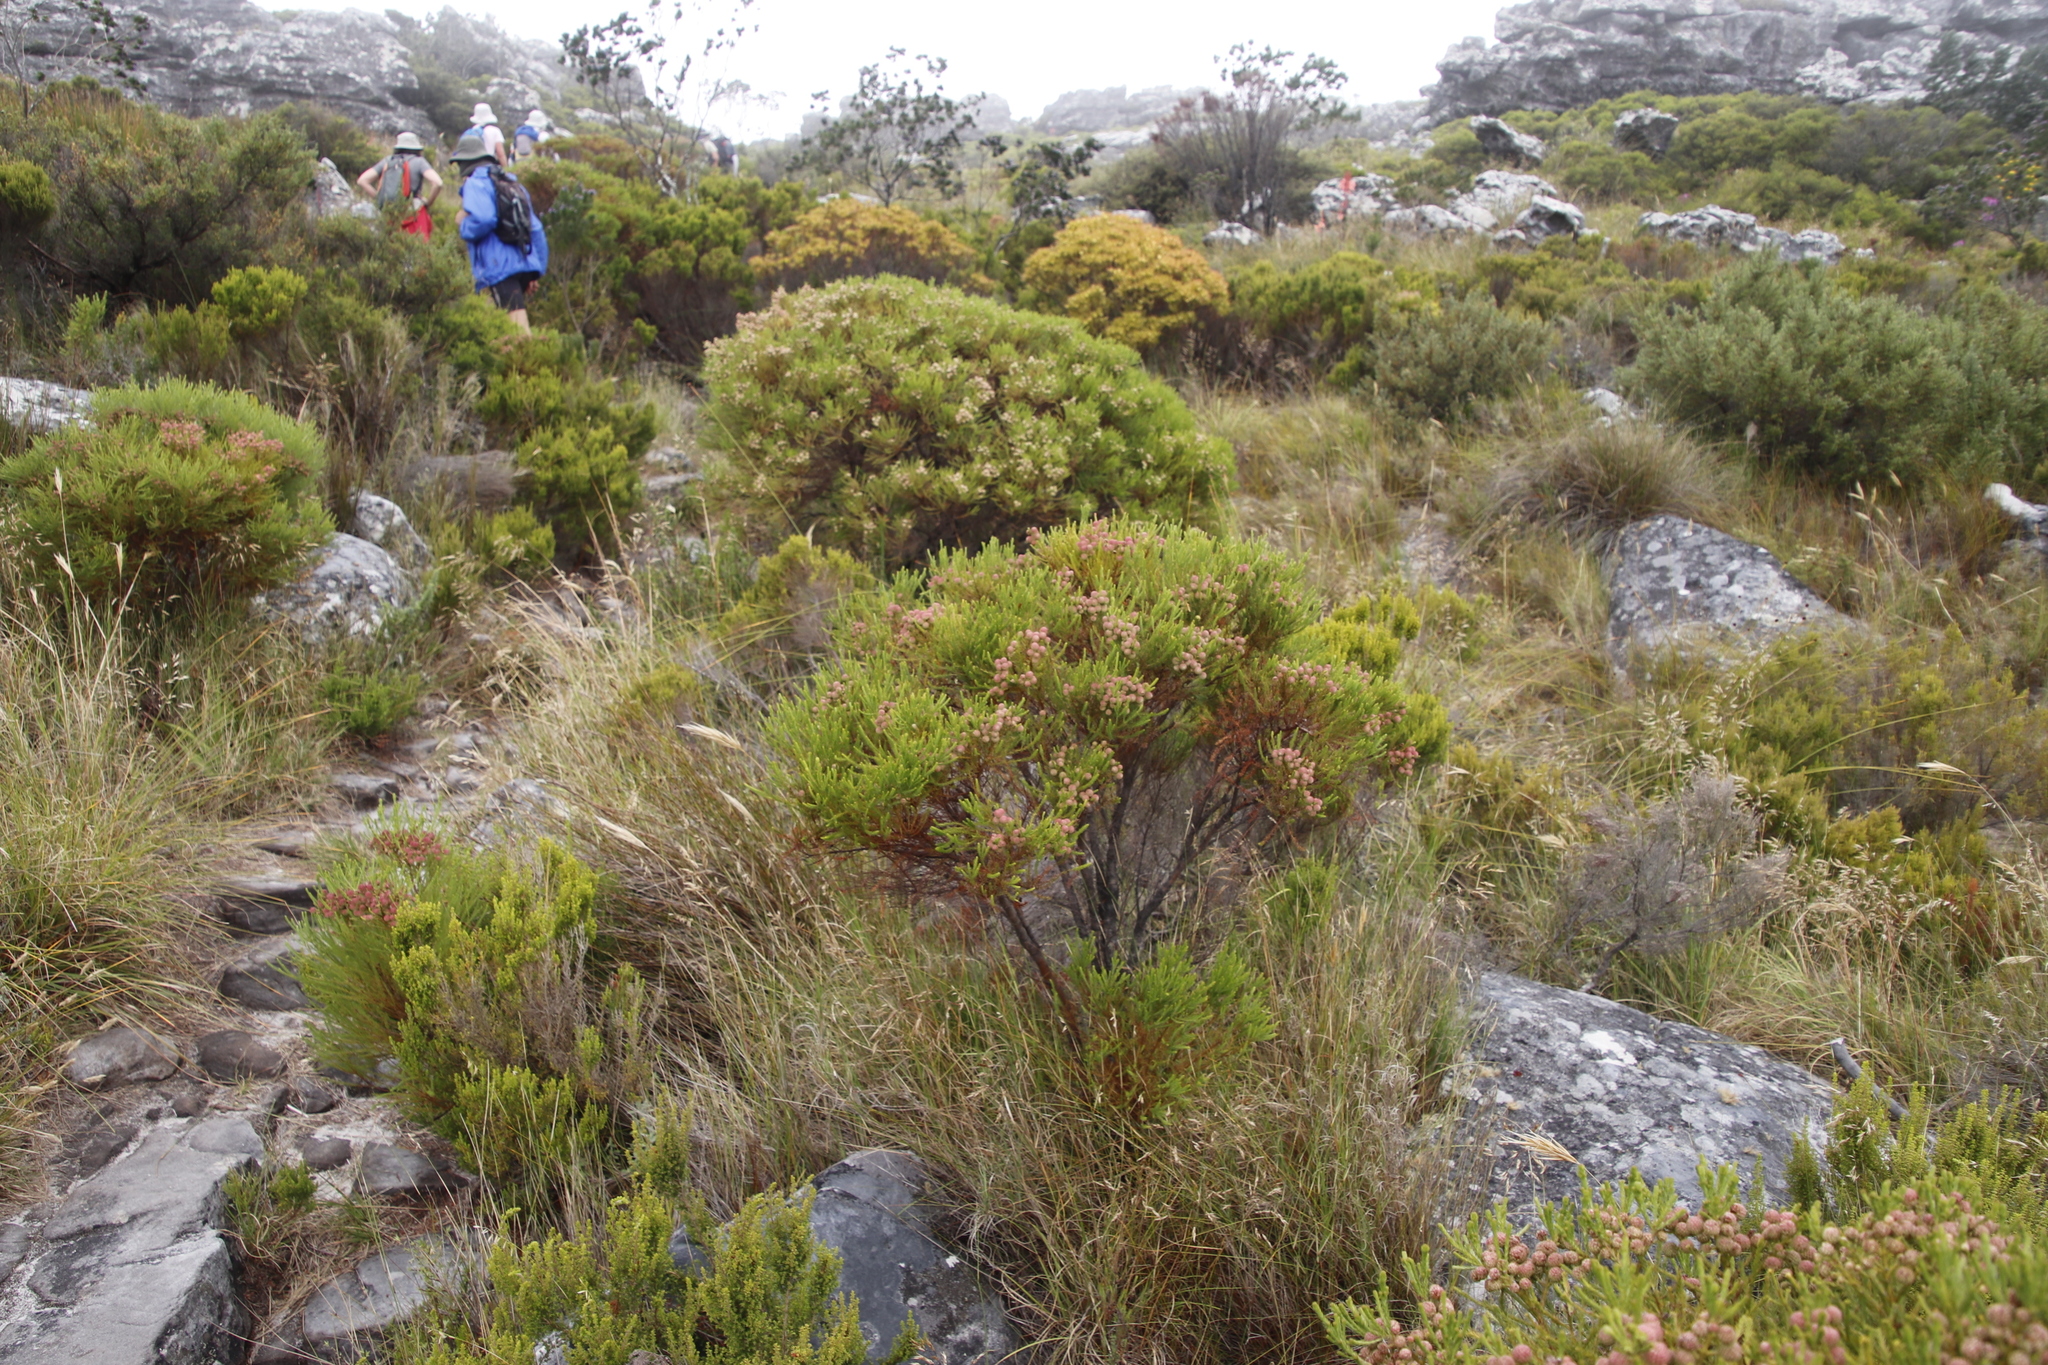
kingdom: Plantae
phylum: Tracheophyta
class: Magnoliopsida
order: Bruniales
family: Bruniaceae
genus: Berzelia
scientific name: Berzelia lanuginosa
